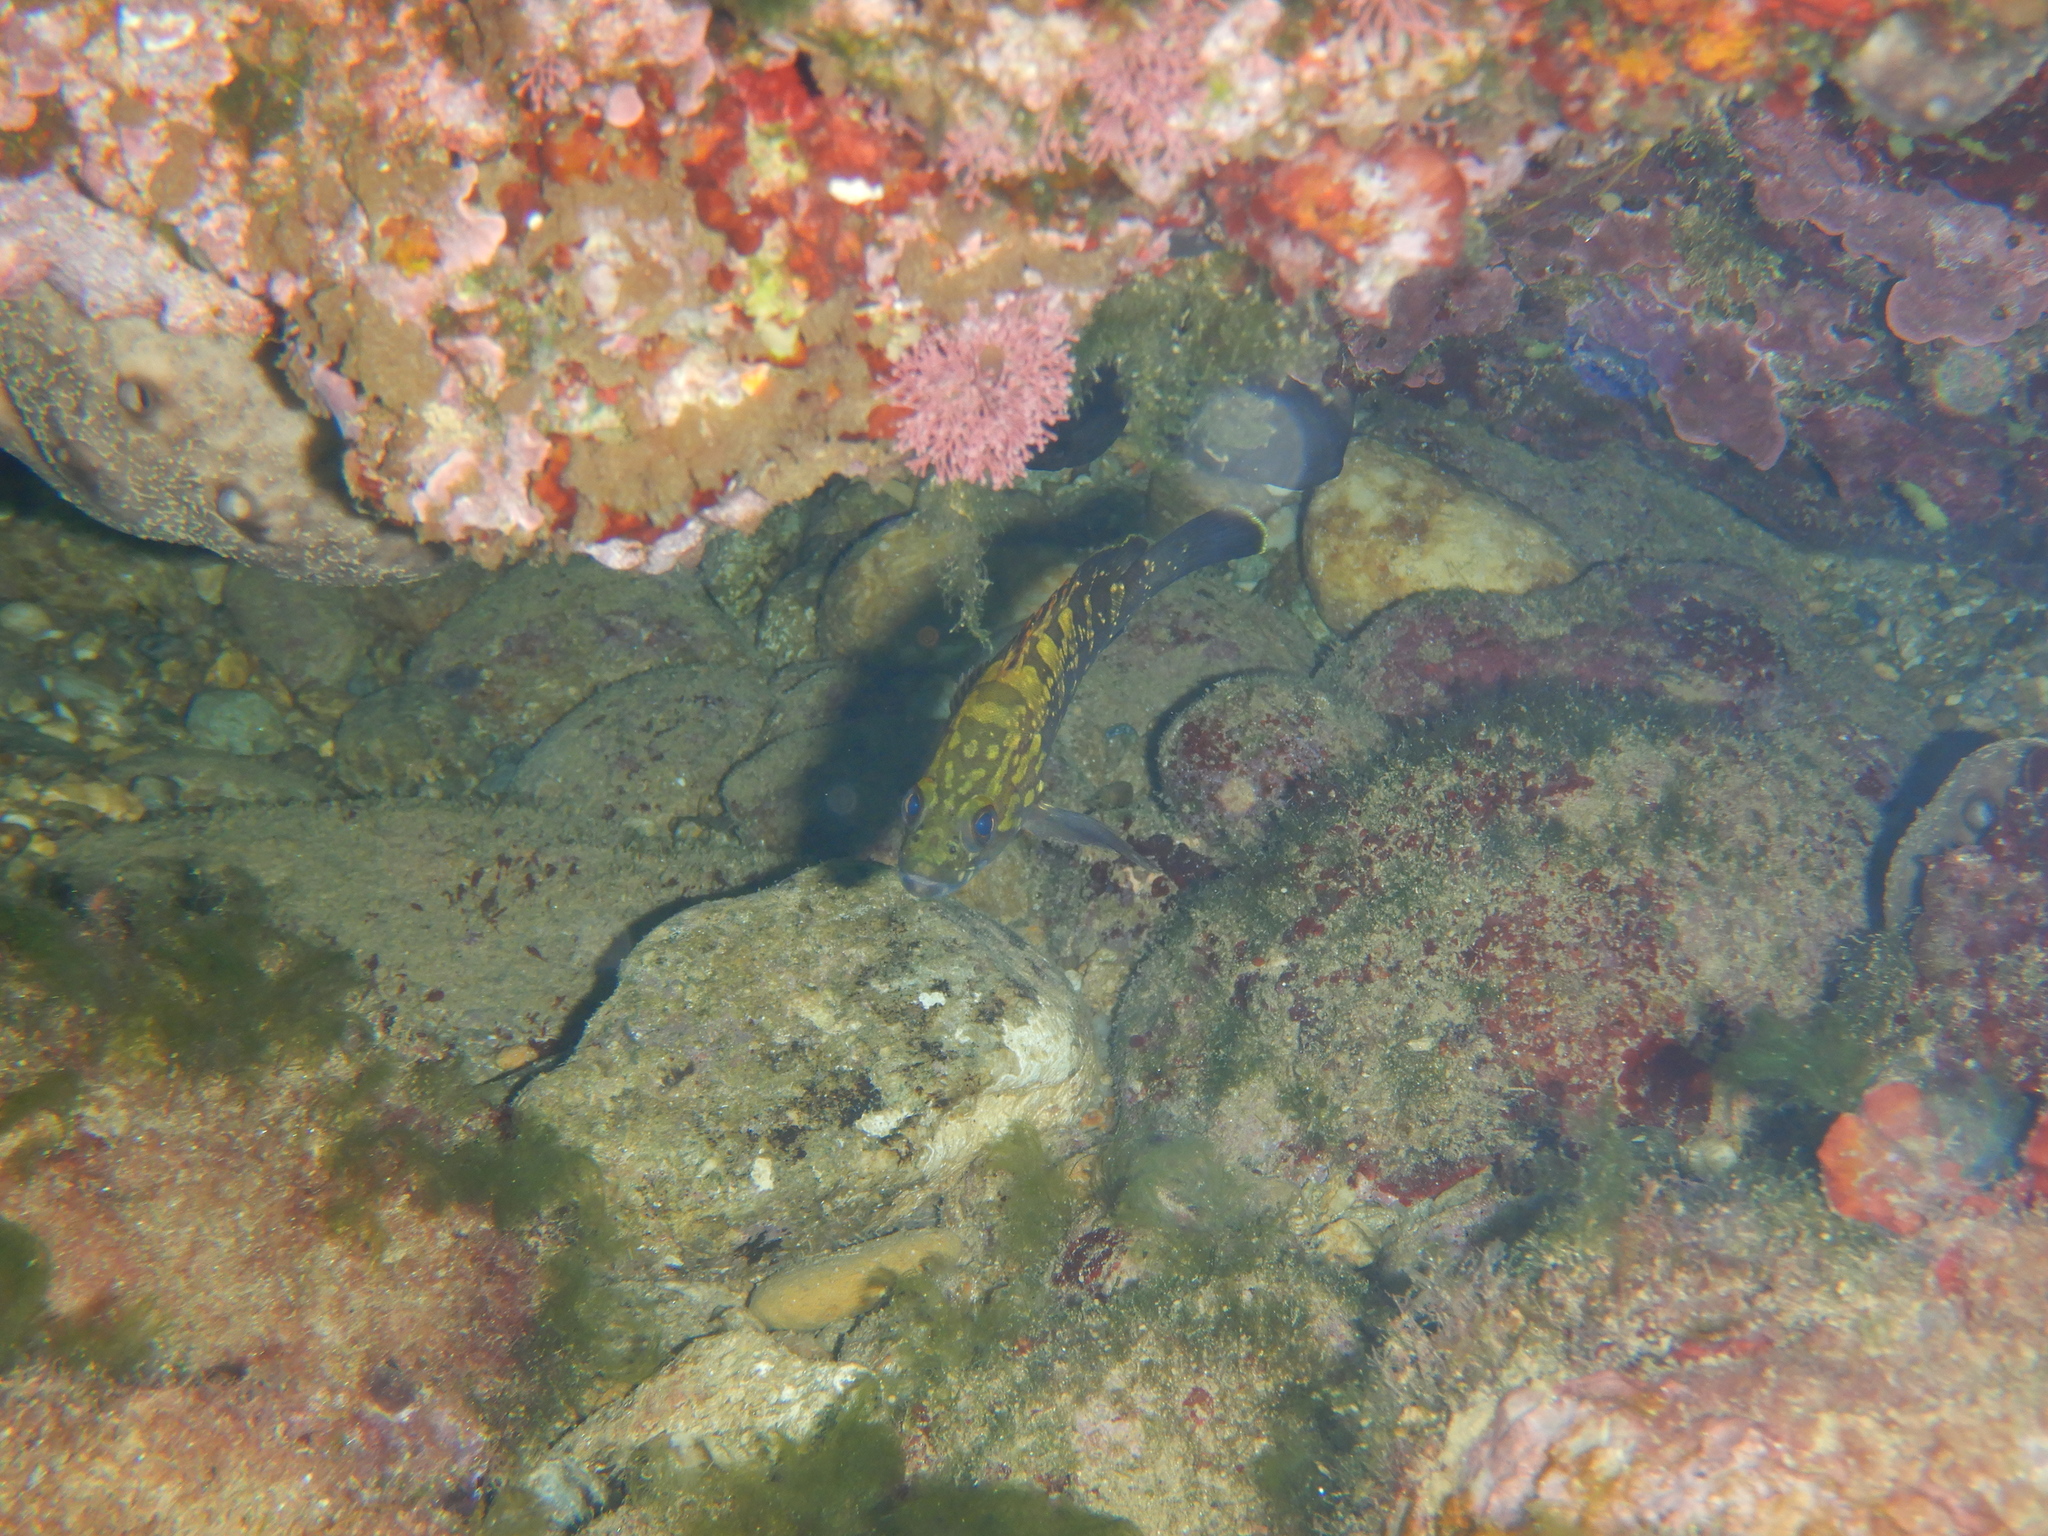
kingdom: Animalia
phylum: Chordata
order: Perciformes
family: Serranidae
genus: Epinephelus
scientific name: Epinephelus marginatus
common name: Dusky grouper
